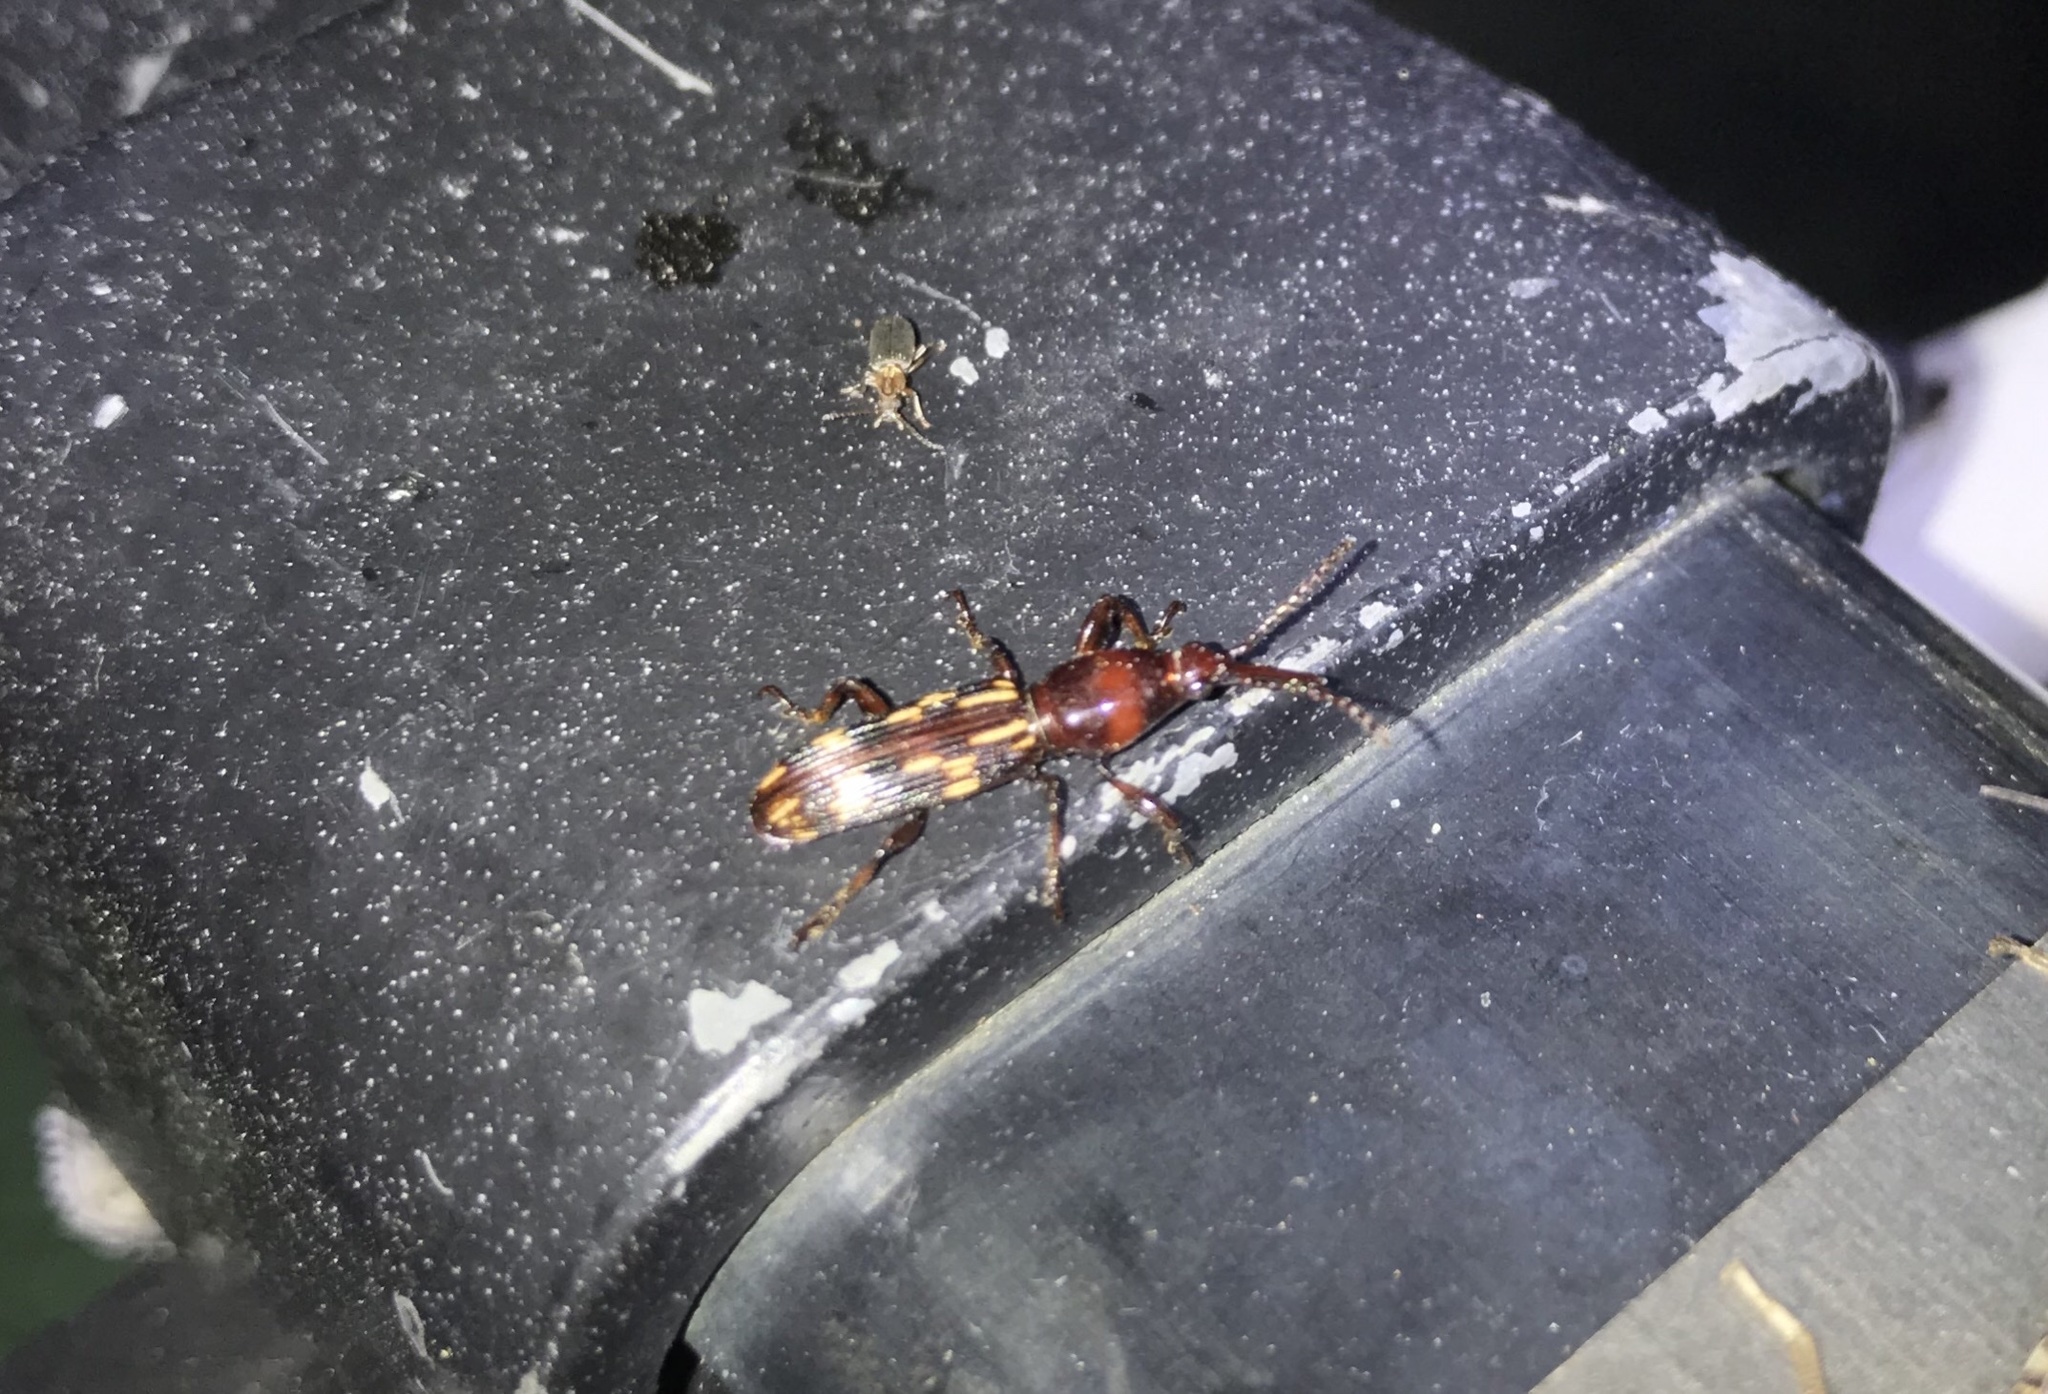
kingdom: Animalia
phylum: Arthropoda
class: Insecta
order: Coleoptera
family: Brentidae
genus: Arrenodes
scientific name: Arrenodes minutus
